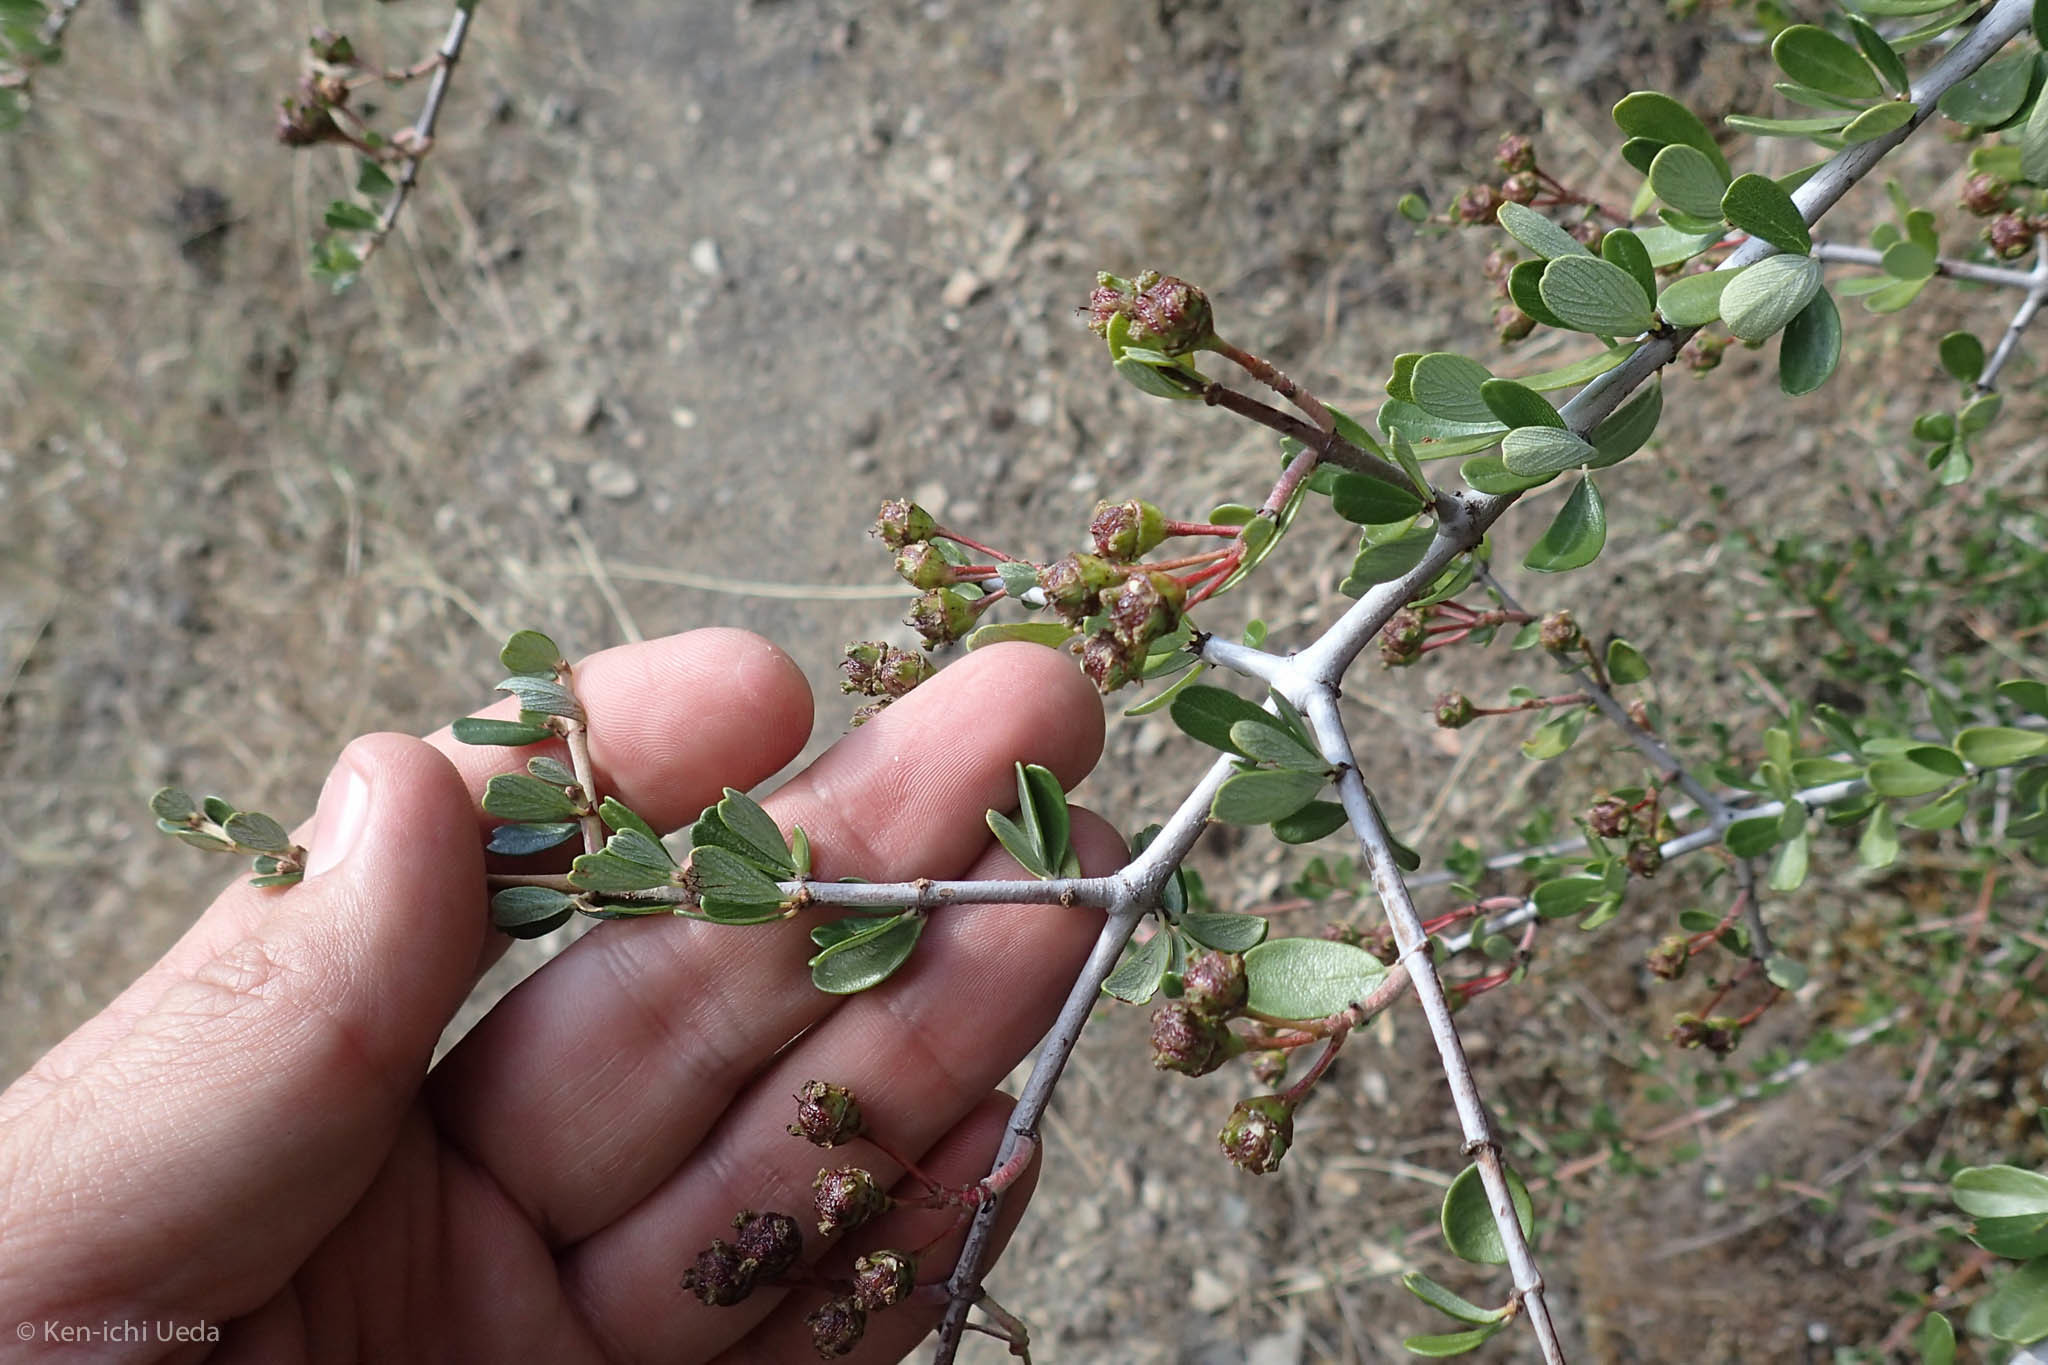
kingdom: Plantae
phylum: Tracheophyta
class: Magnoliopsida
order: Rosales
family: Rhamnaceae
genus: Ceanothus
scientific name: Ceanothus cuneatus
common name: Cuneate ceanothus
